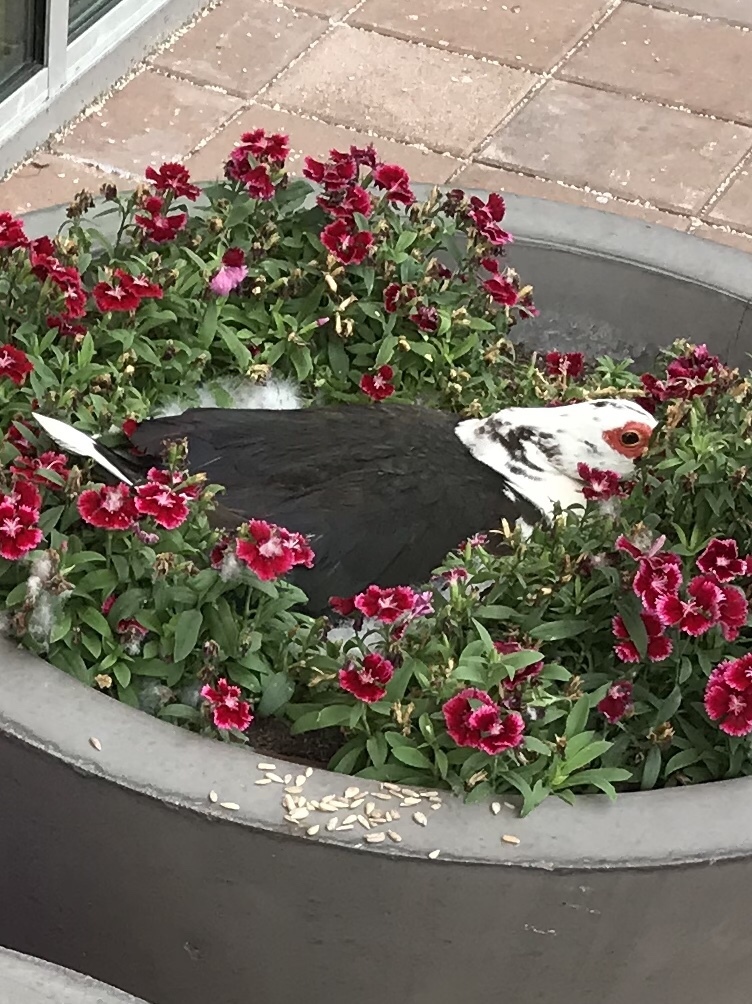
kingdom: Animalia
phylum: Chordata
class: Aves
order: Anseriformes
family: Anatidae
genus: Cairina
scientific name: Cairina moschata
